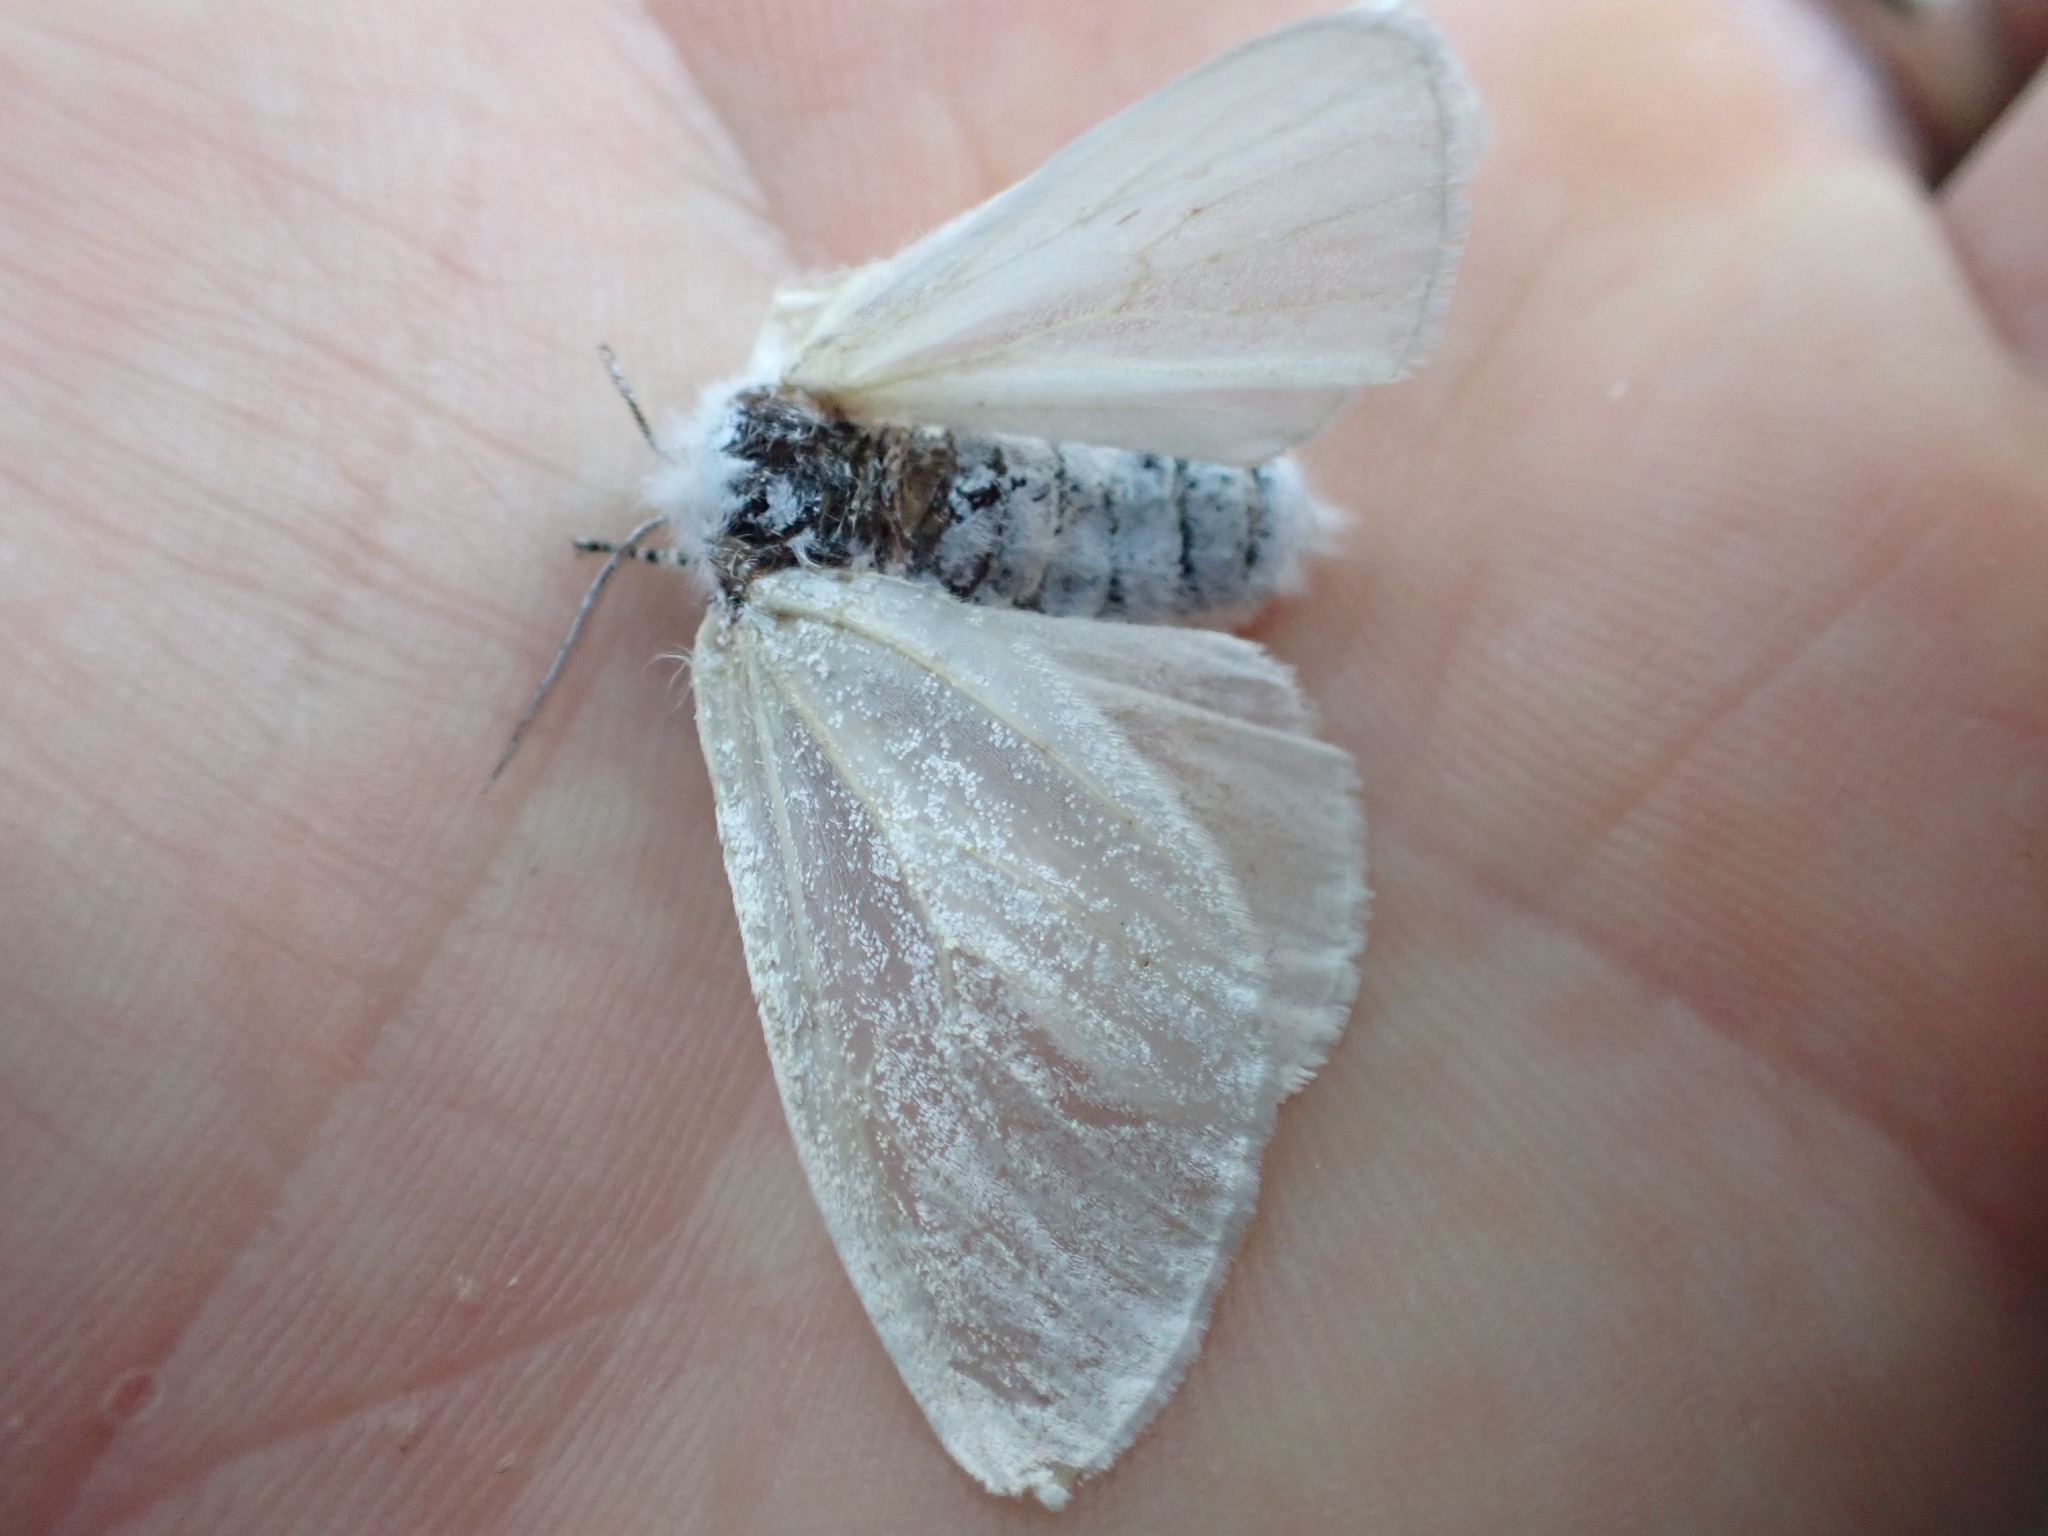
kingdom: Animalia
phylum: Arthropoda
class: Insecta
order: Lepidoptera
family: Erebidae
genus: Leucoma
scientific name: Leucoma salicis
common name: White satin moth
